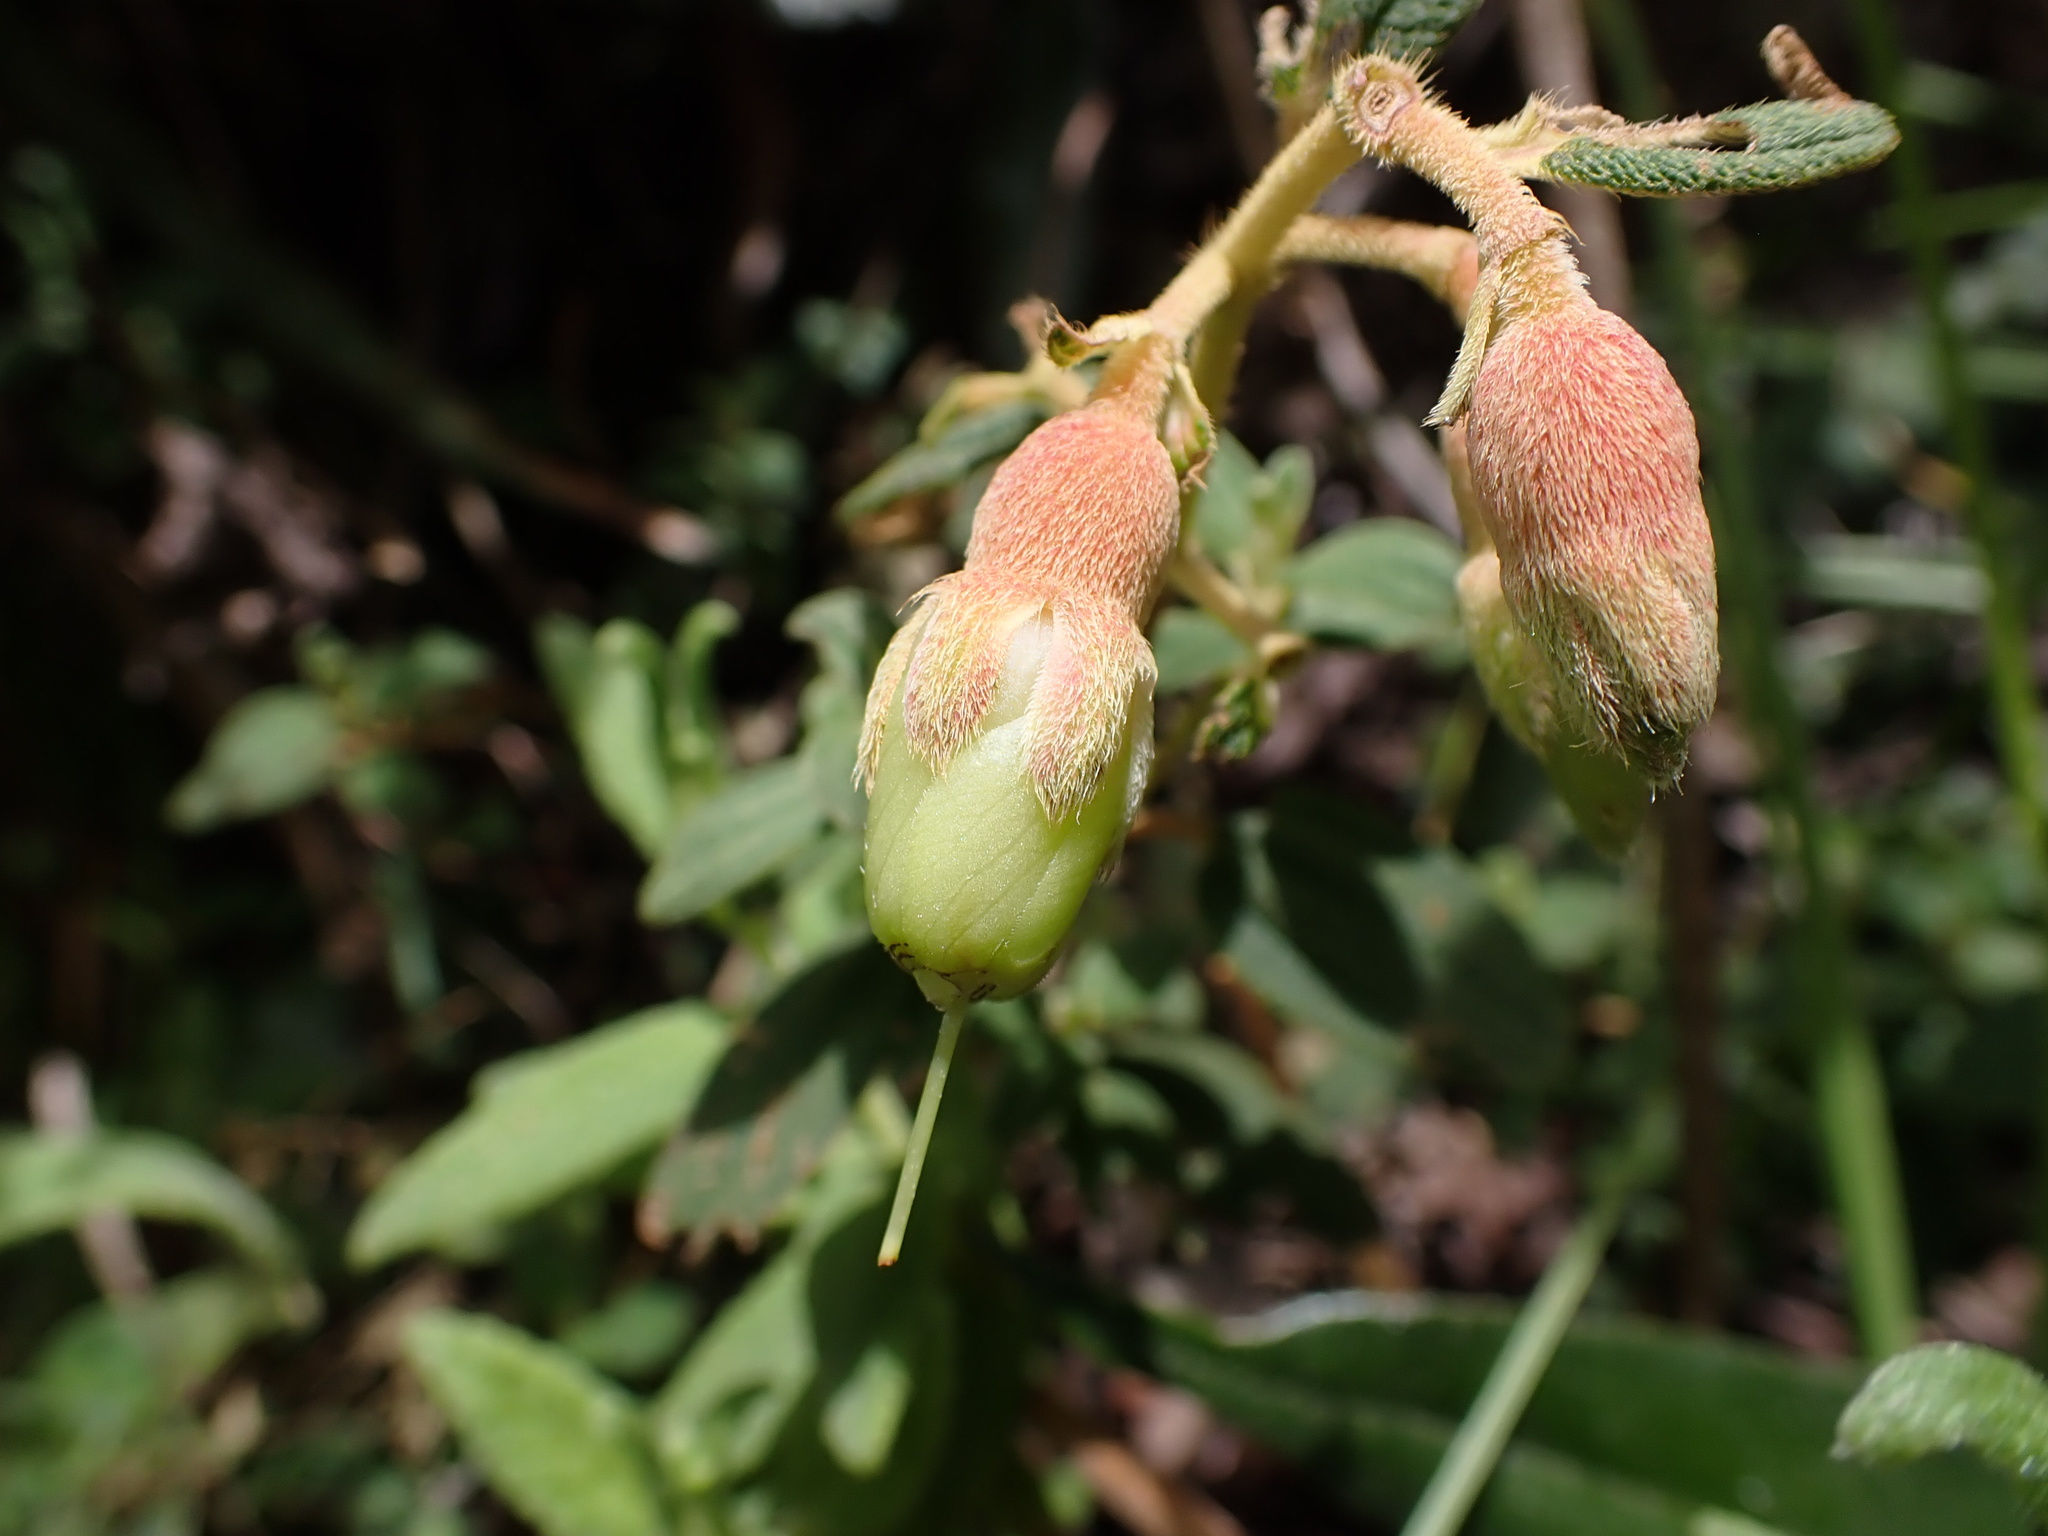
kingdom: Plantae
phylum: Tracheophyta
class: Magnoliopsida
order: Myrtales
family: Melastomataceae
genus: Brachyotum
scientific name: Brachyotum ledifolium
